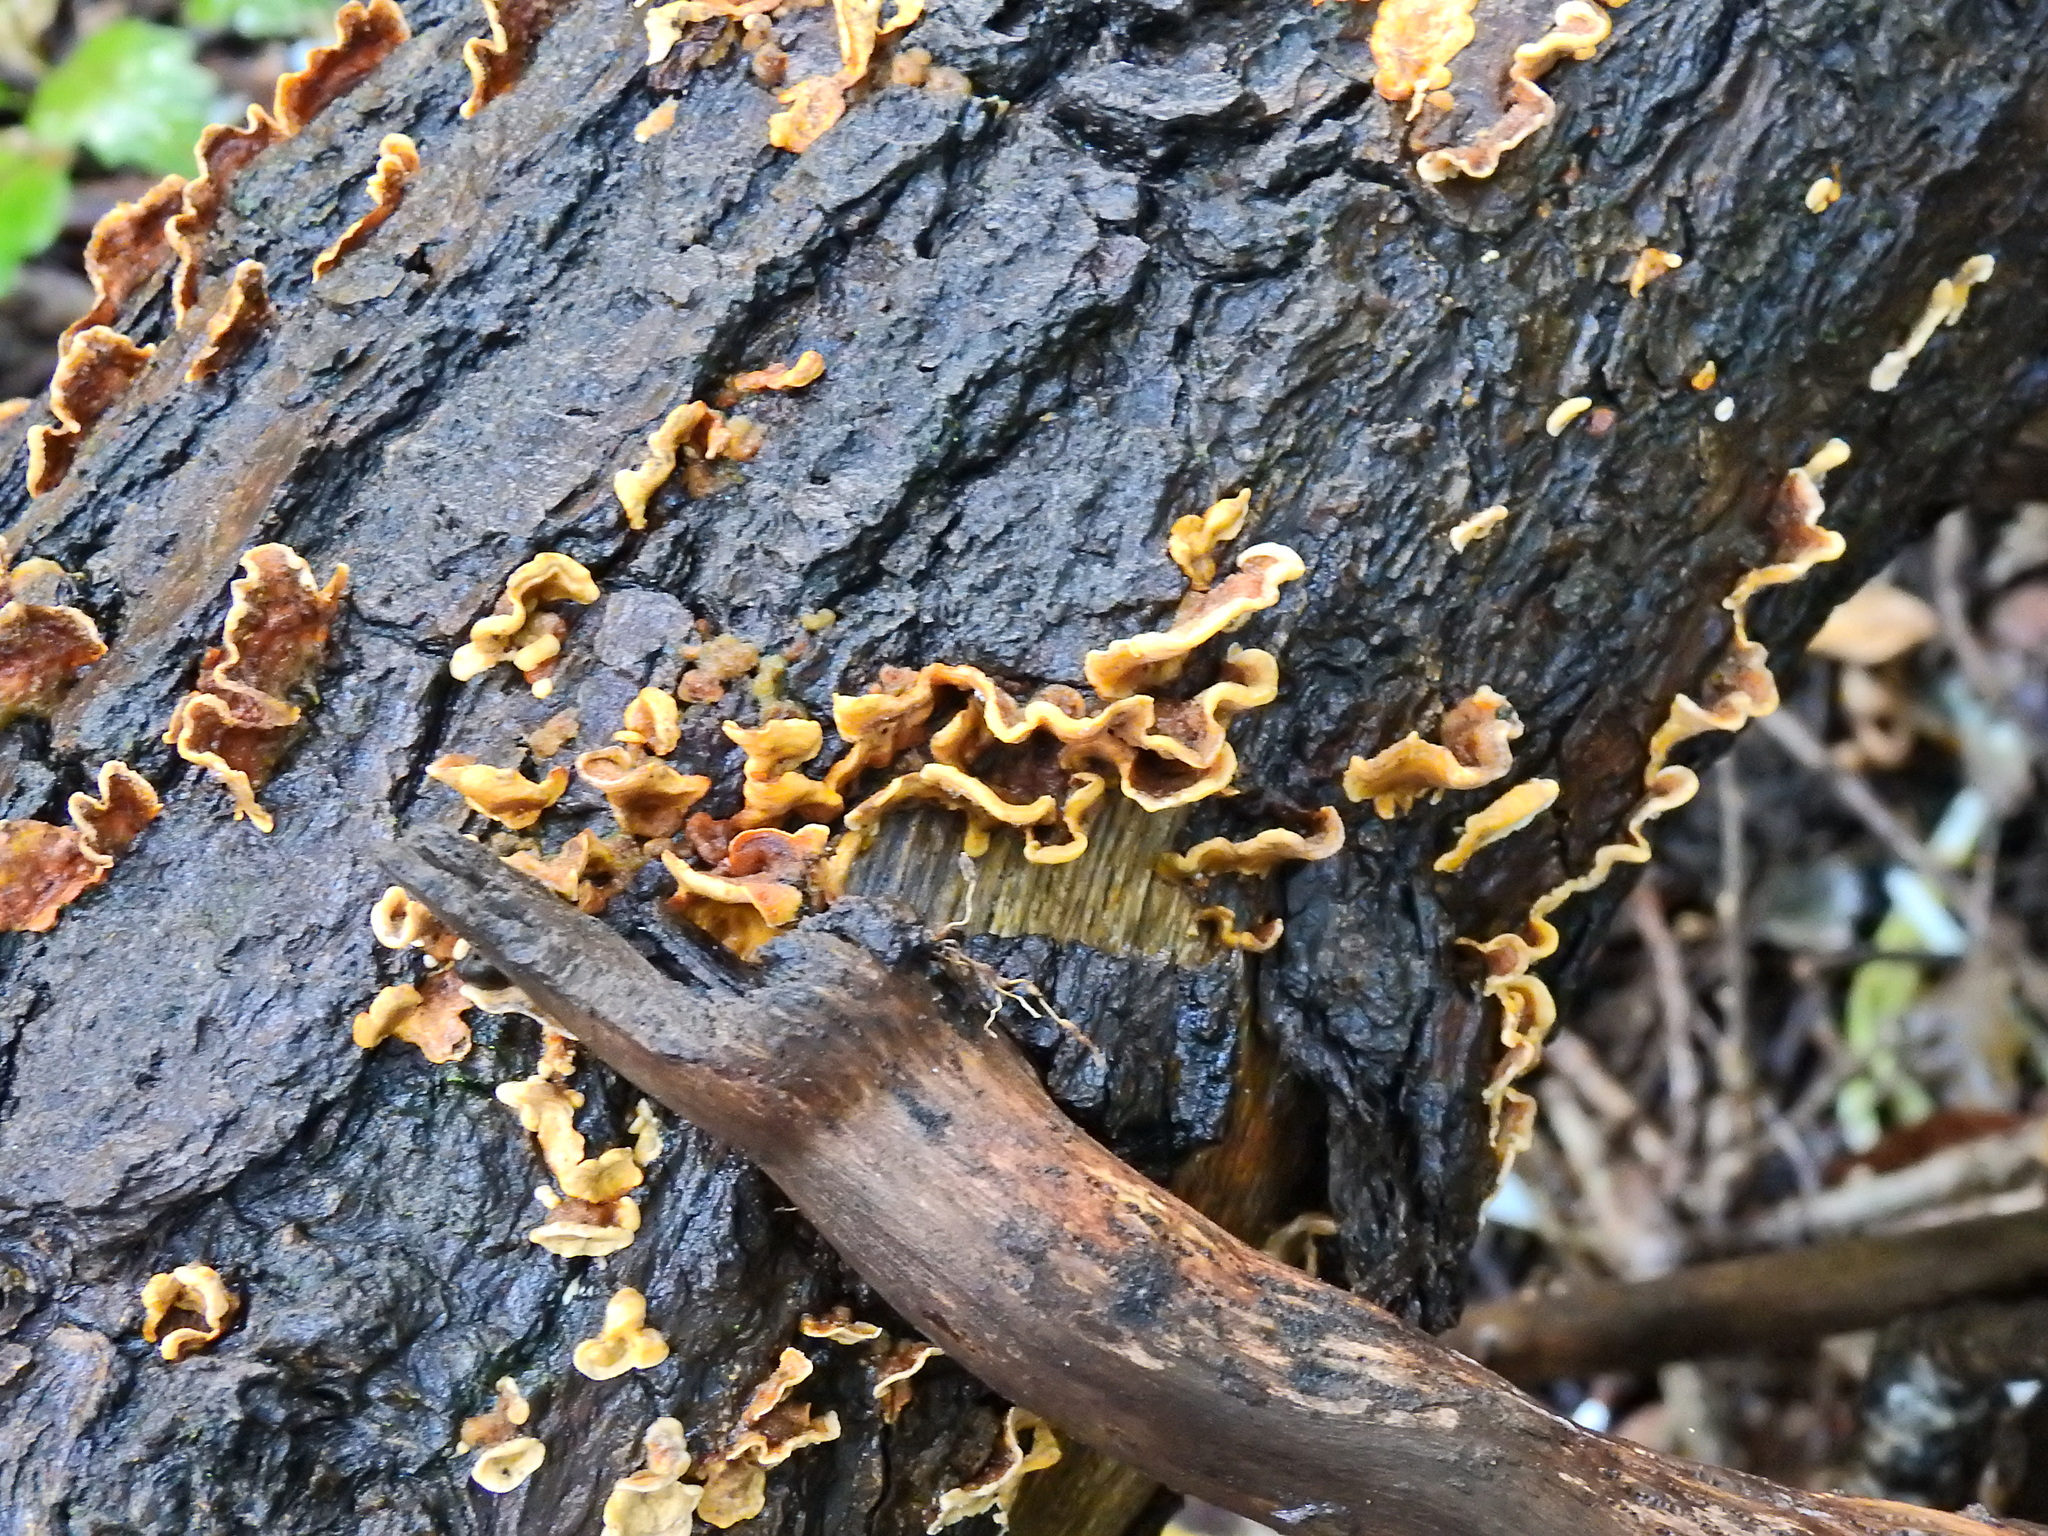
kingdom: Fungi
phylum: Basidiomycota
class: Agaricomycetes
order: Russulales
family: Stereaceae
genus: Stereum
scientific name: Stereum hirsutum
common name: Hairy curtain crust
